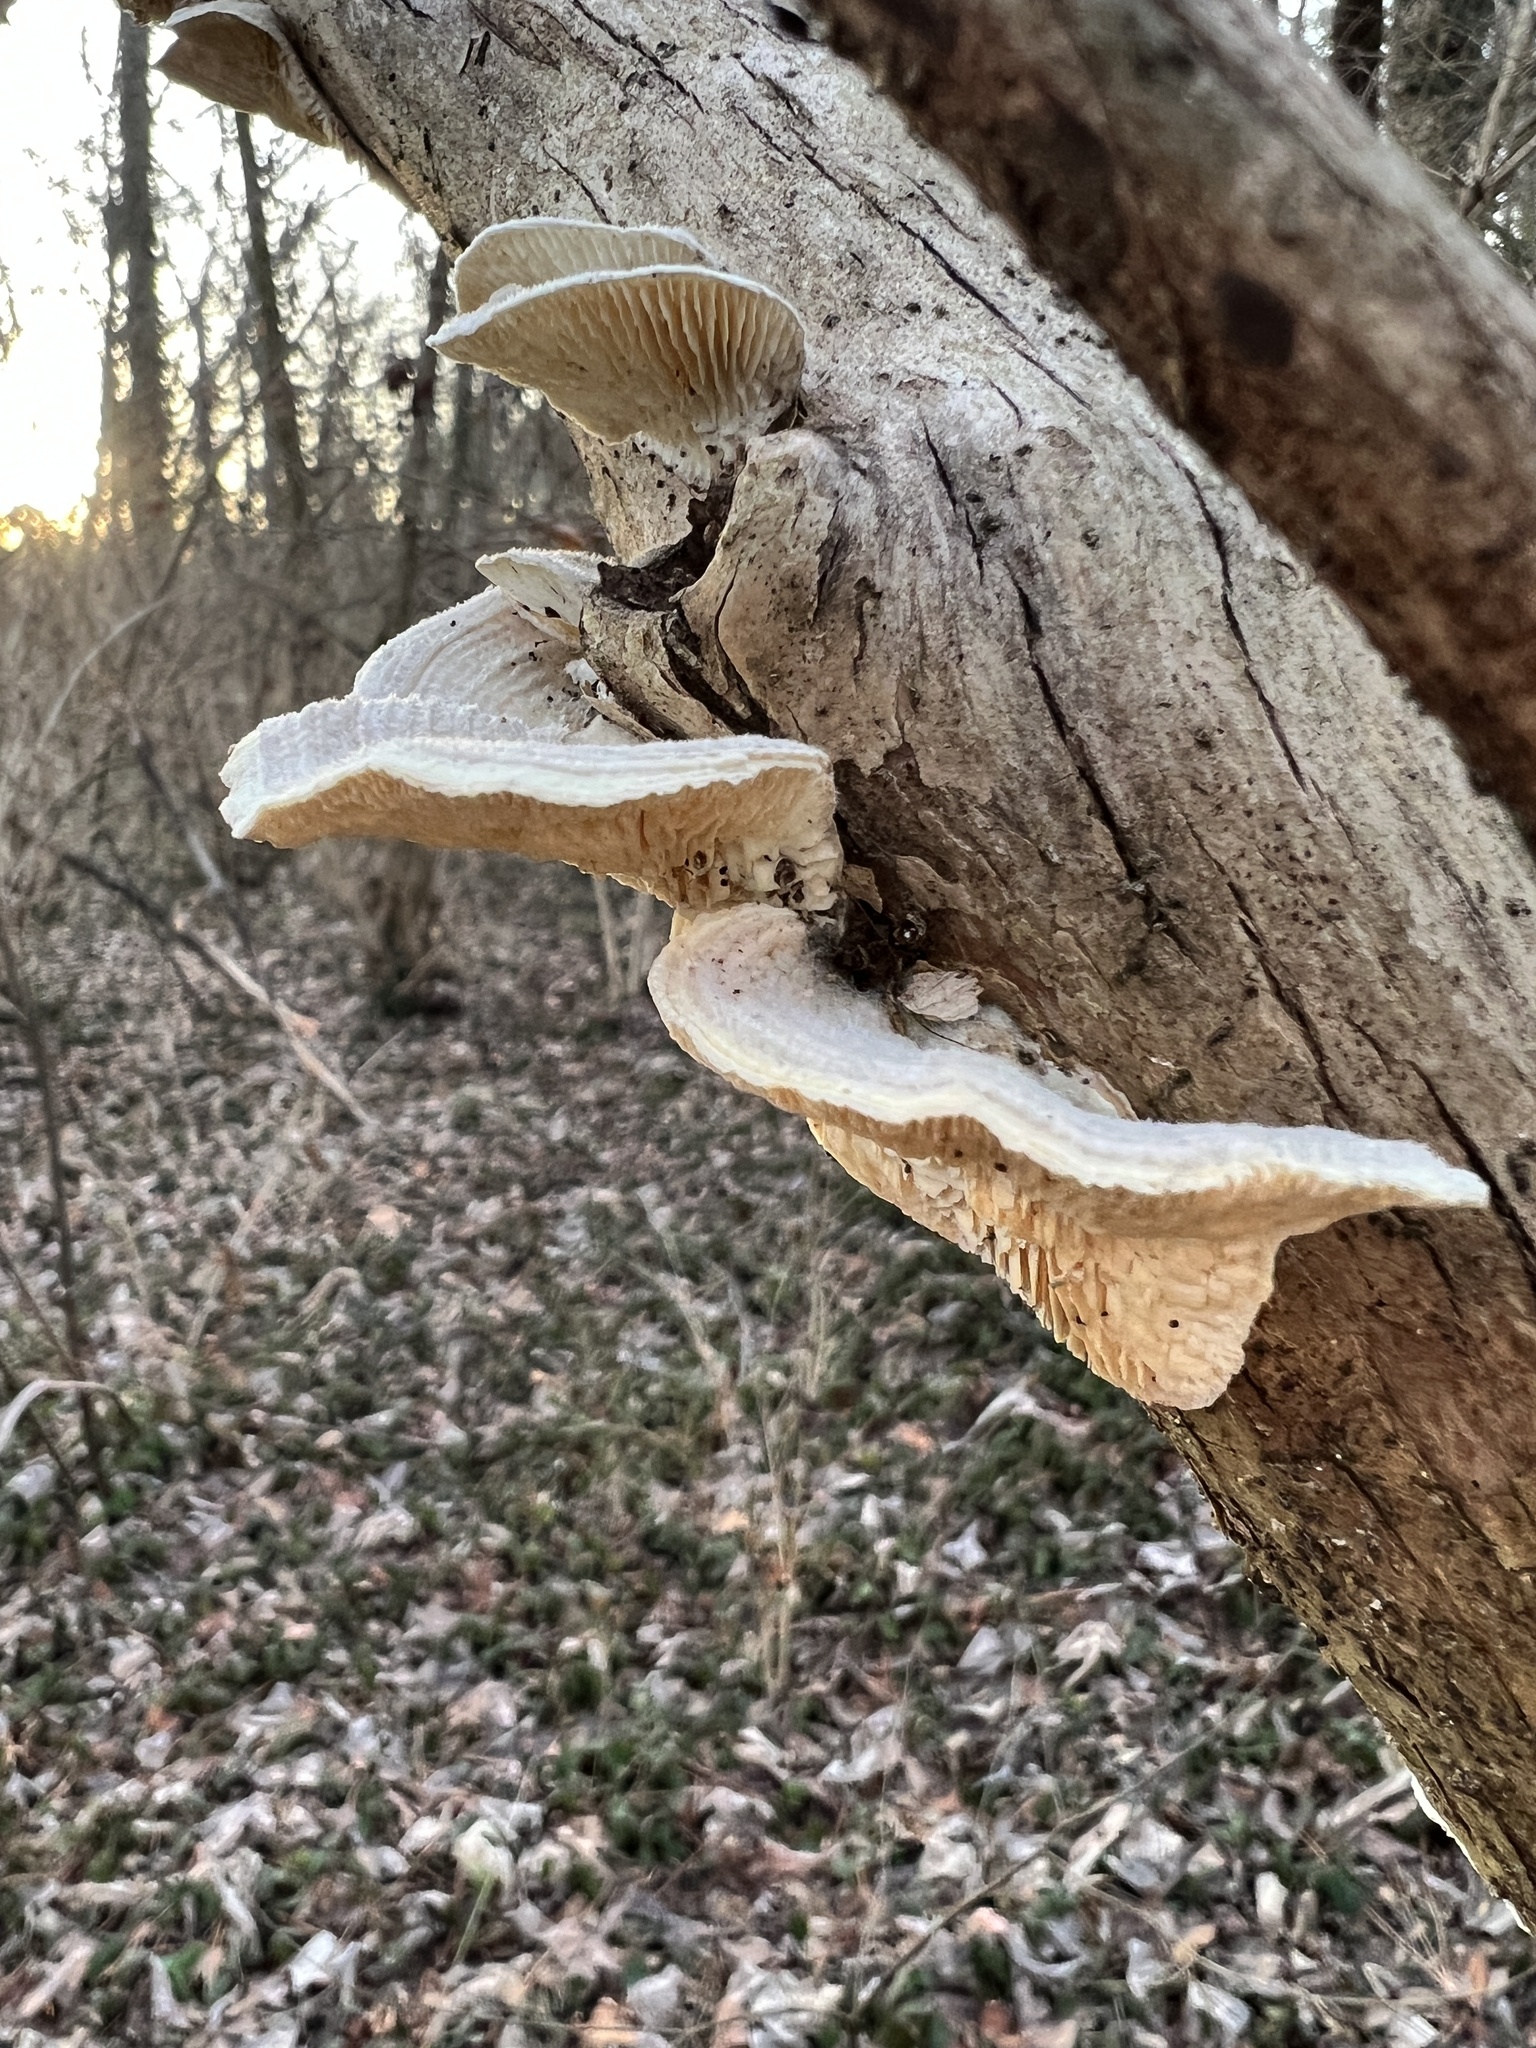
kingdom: Fungi
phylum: Basidiomycota
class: Agaricomycetes
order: Polyporales
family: Polyporaceae
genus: Lenzites
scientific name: Lenzites betulinus
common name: Birch mazegill
